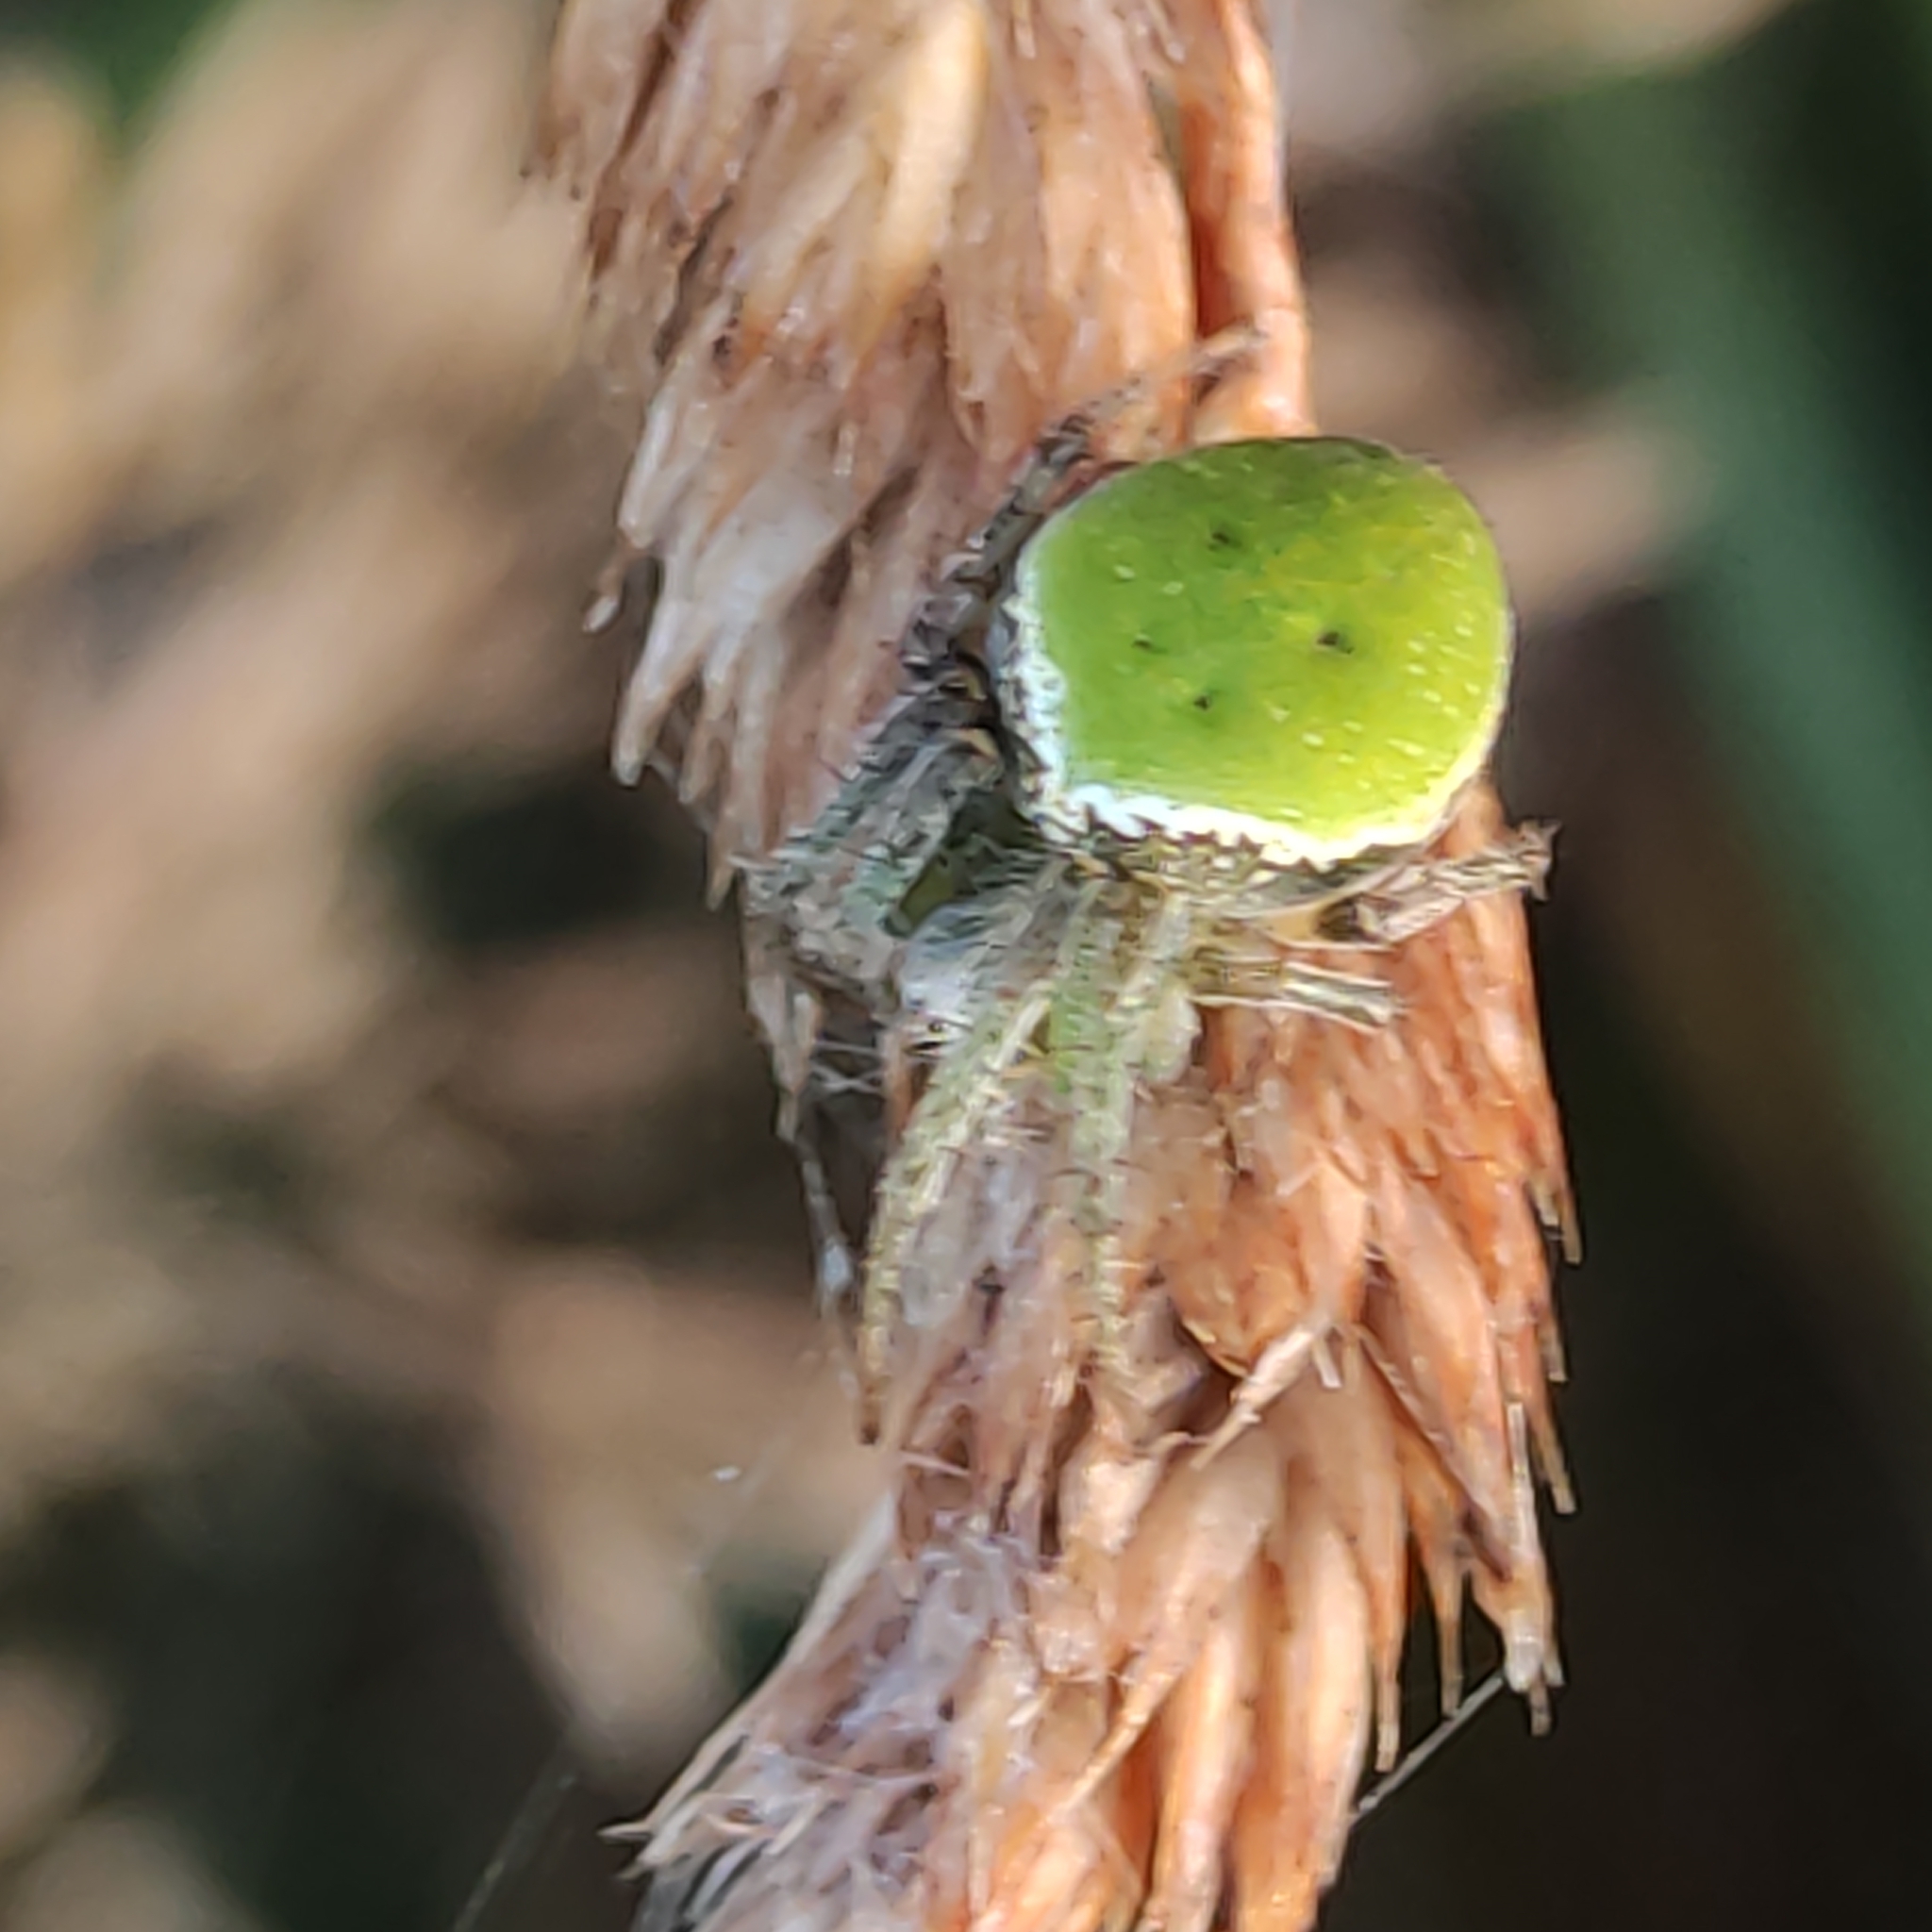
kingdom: Animalia
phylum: Arthropoda
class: Arachnida
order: Araneae
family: Araneidae
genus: Colaranea
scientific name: Colaranea viriditas
